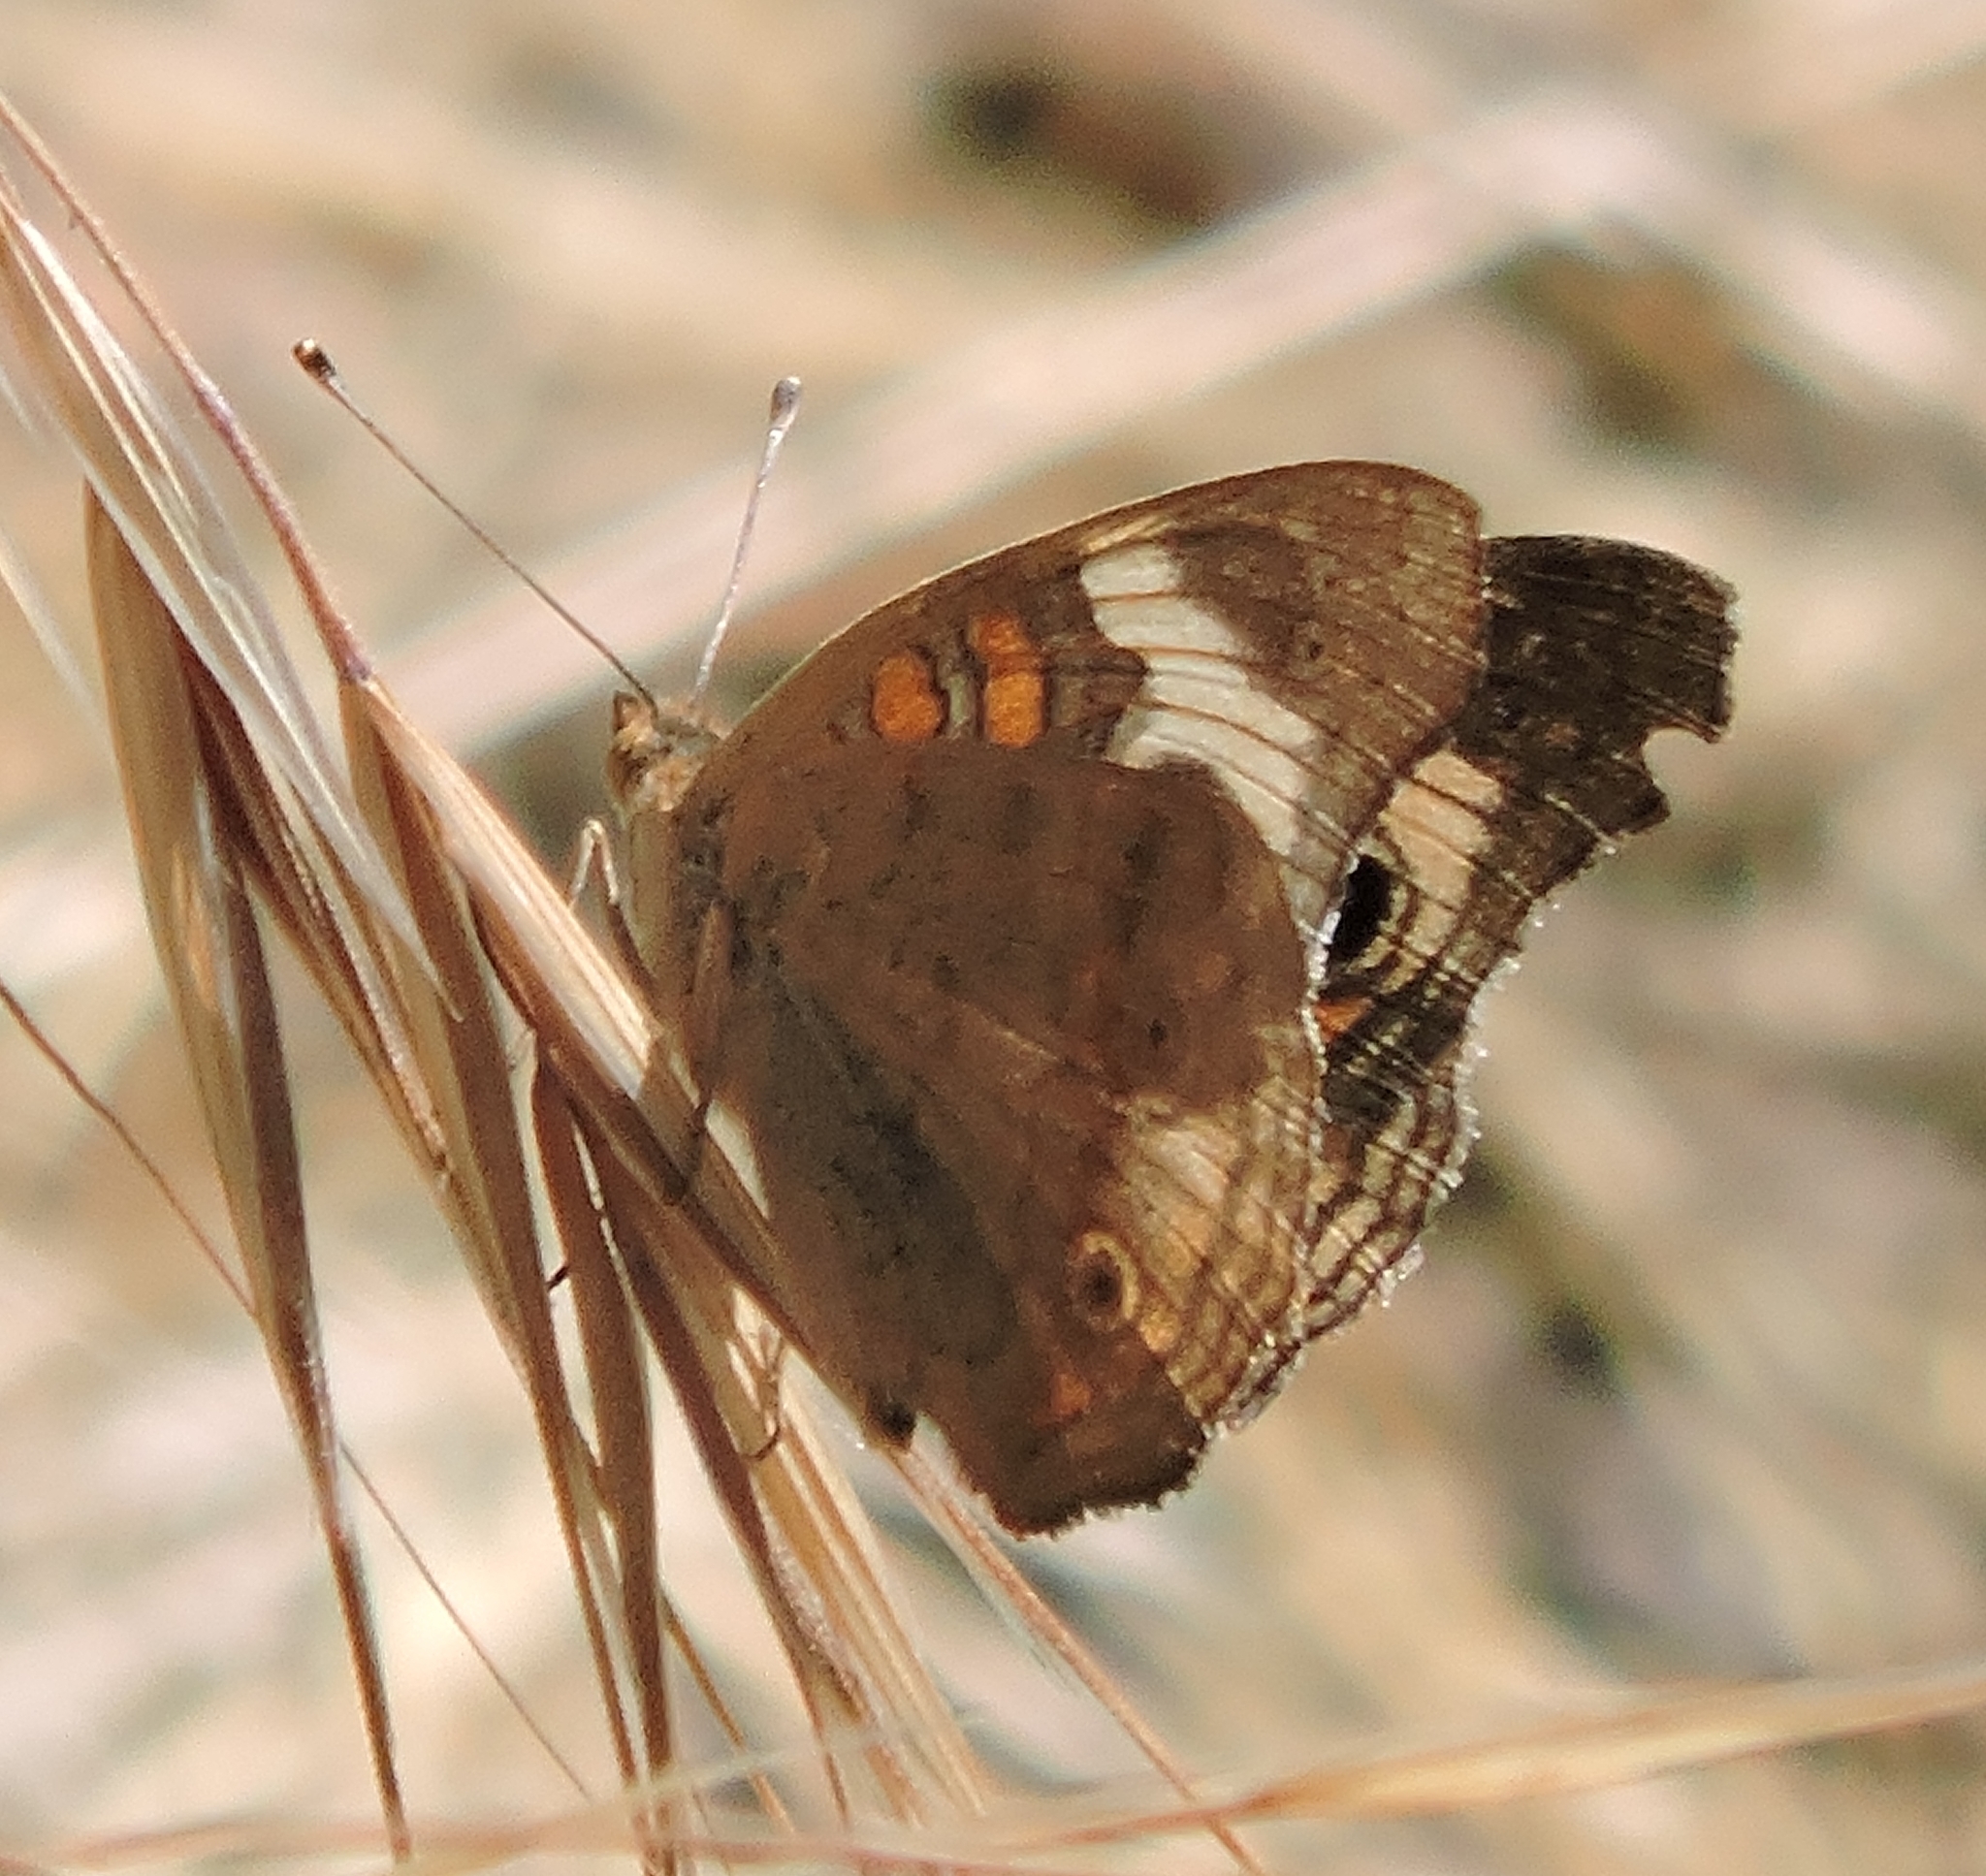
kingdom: Animalia
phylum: Arthropoda
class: Insecta
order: Lepidoptera
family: Nymphalidae
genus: Junonia
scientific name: Junonia grisea
